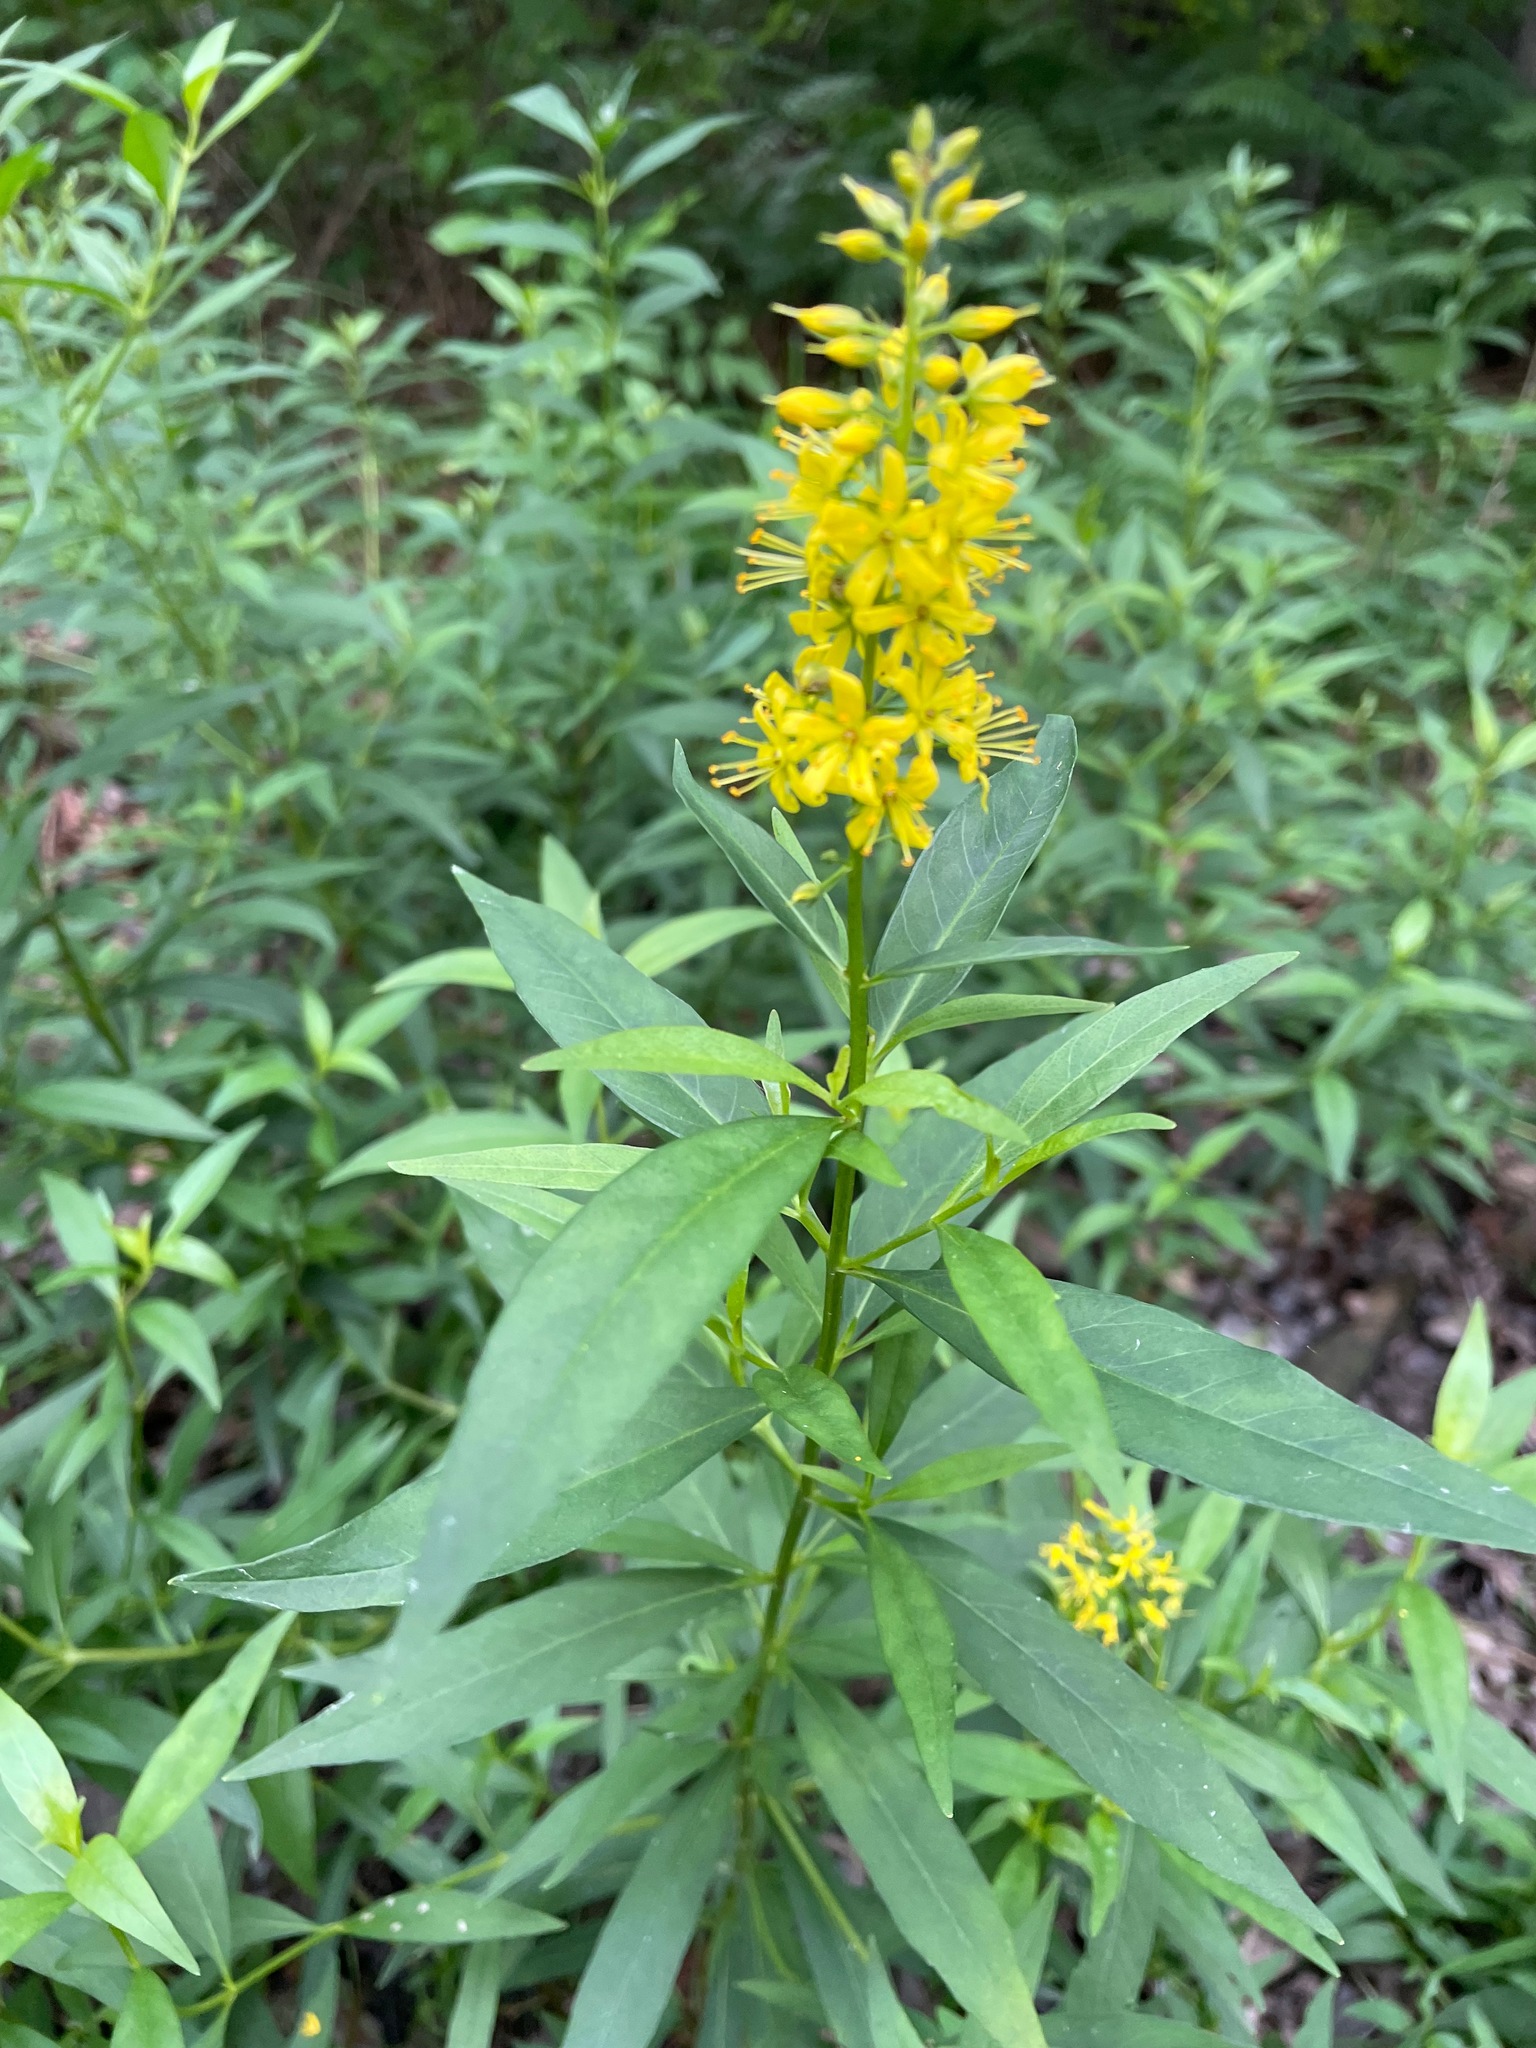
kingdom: Plantae
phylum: Tracheophyta
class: Magnoliopsida
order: Ericales
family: Primulaceae
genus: Lysimachia
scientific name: Lysimachia terrestris
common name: Lake loosestrife
